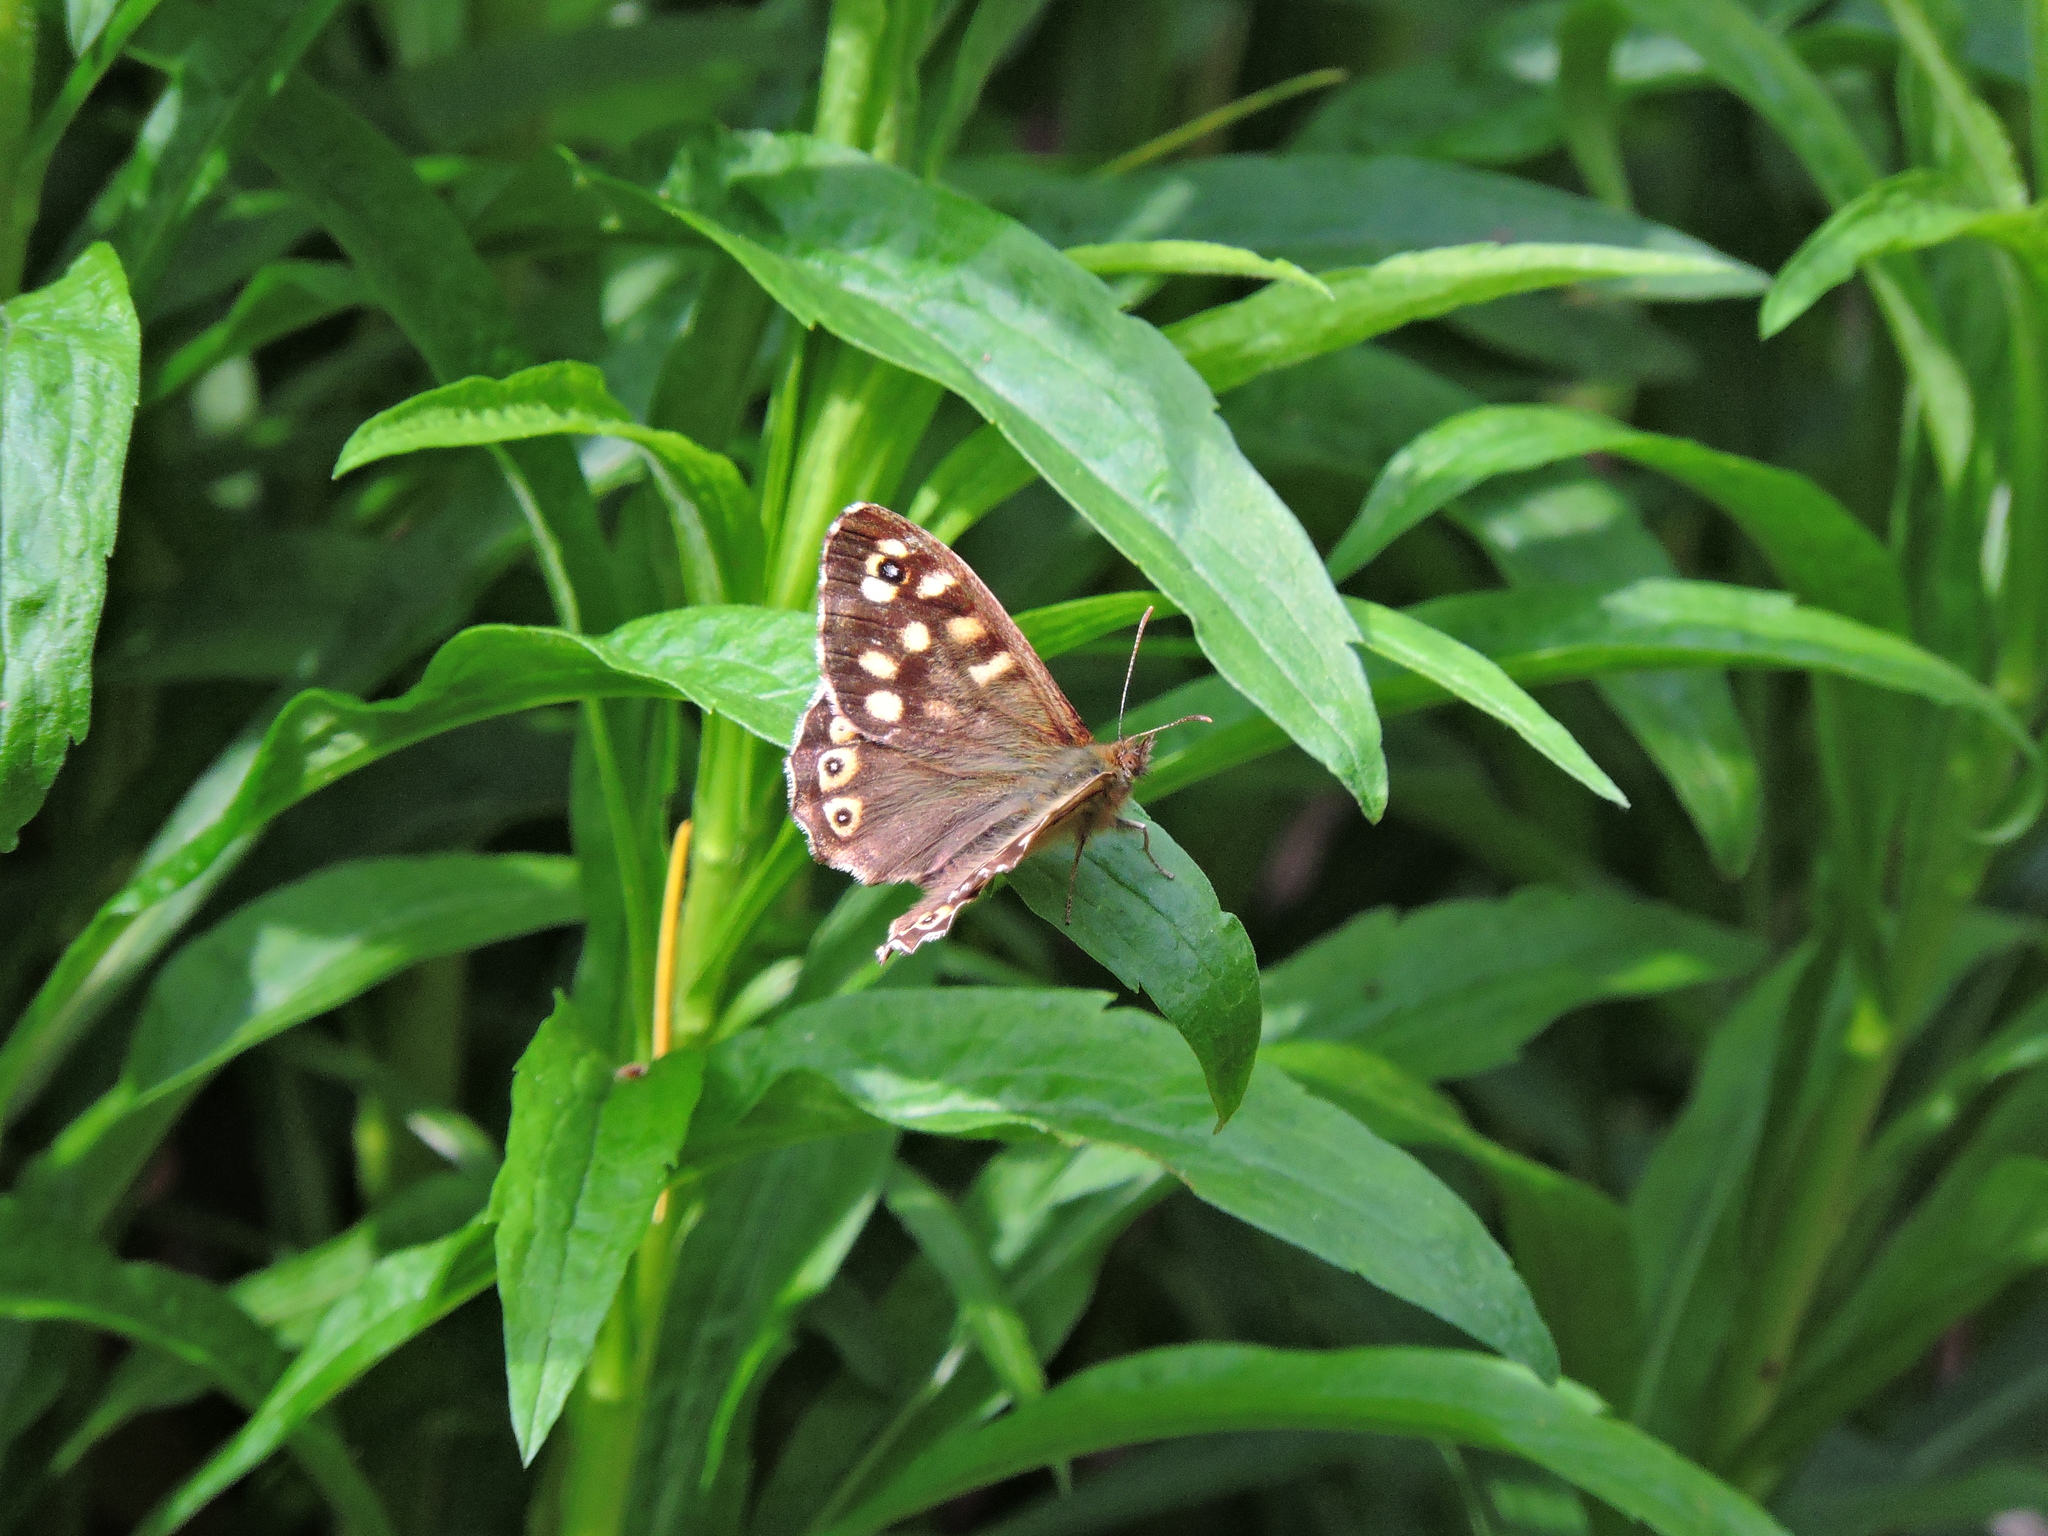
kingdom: Animalia
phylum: Arthropoda
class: Insecta
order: Lepidoptera
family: Nymphalidae
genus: Pararge
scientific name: Pararge aegeria
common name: Speckled wood
